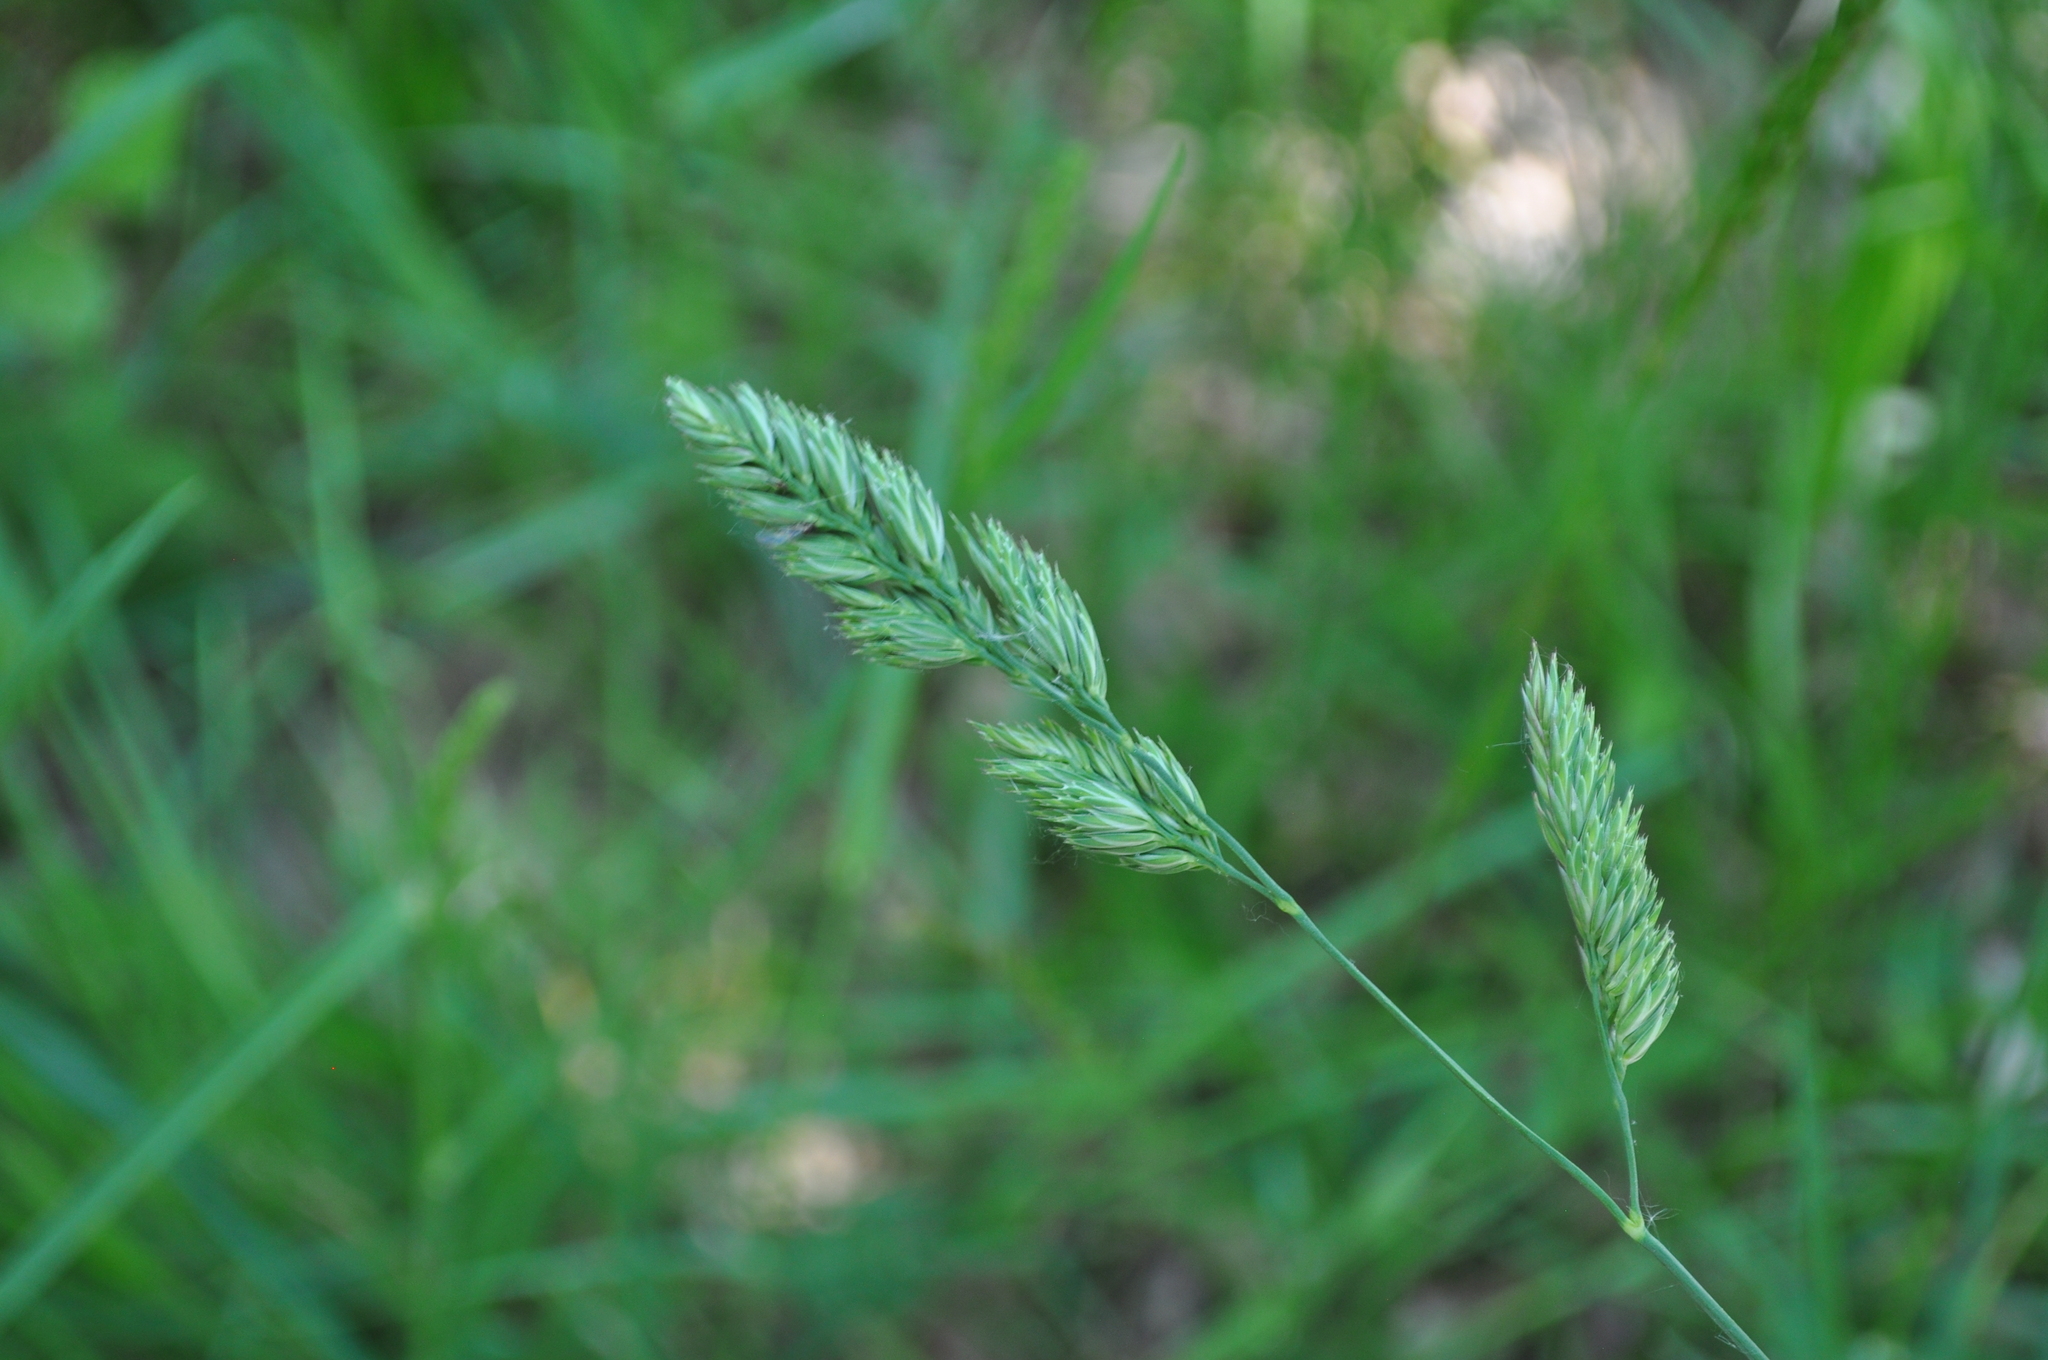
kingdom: Plantae
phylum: Tracheophyta
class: Liliopsida
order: Poales
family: Poaceae
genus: Dactylis
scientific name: Dactylis glomerata
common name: Orchardgrass
